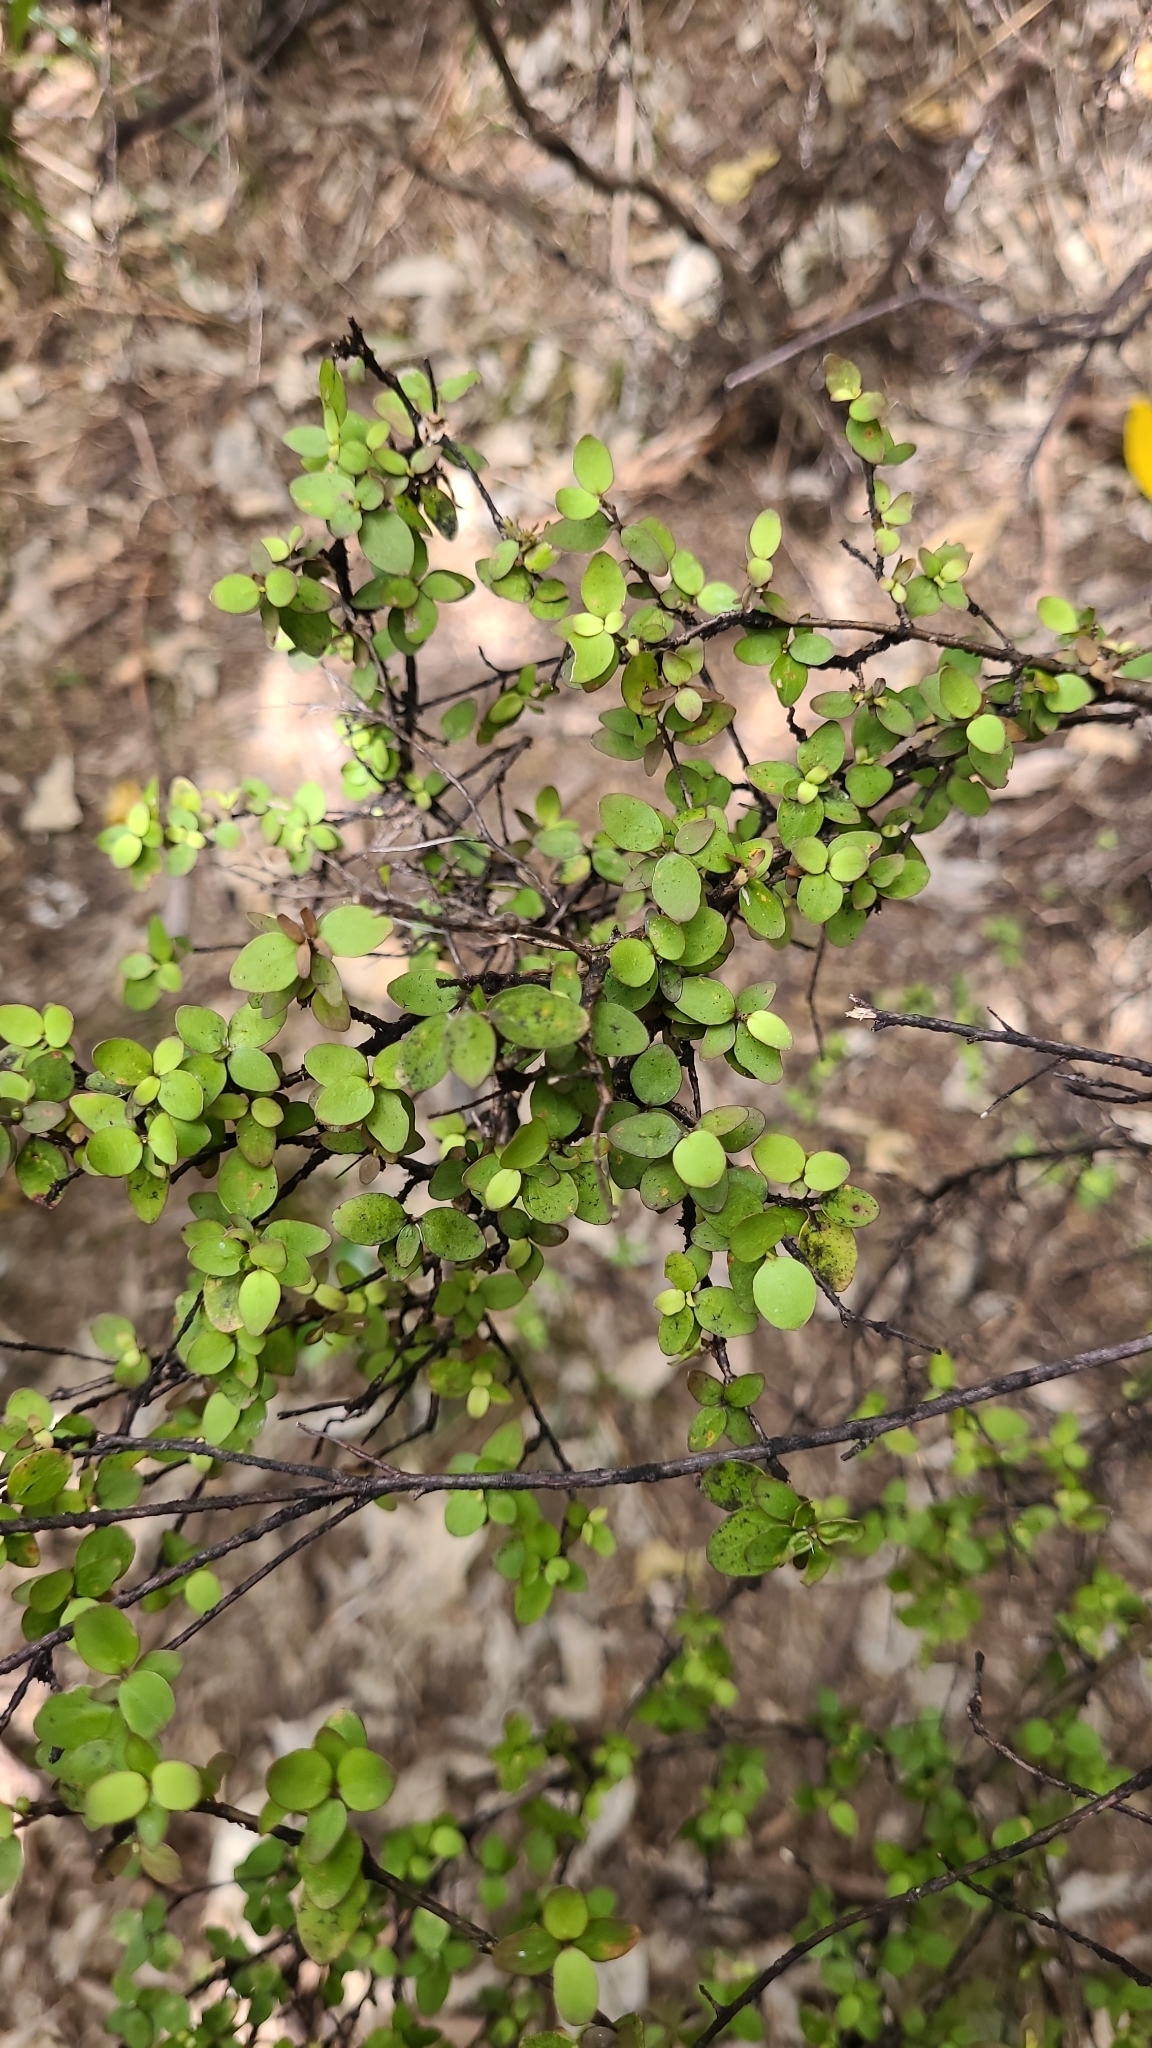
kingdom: Plantae
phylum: Tracheophyta
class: Magnoliopsida
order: Gentianales
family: Rubiaceae
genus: Coprosma
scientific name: Coprosma rhamnoides
